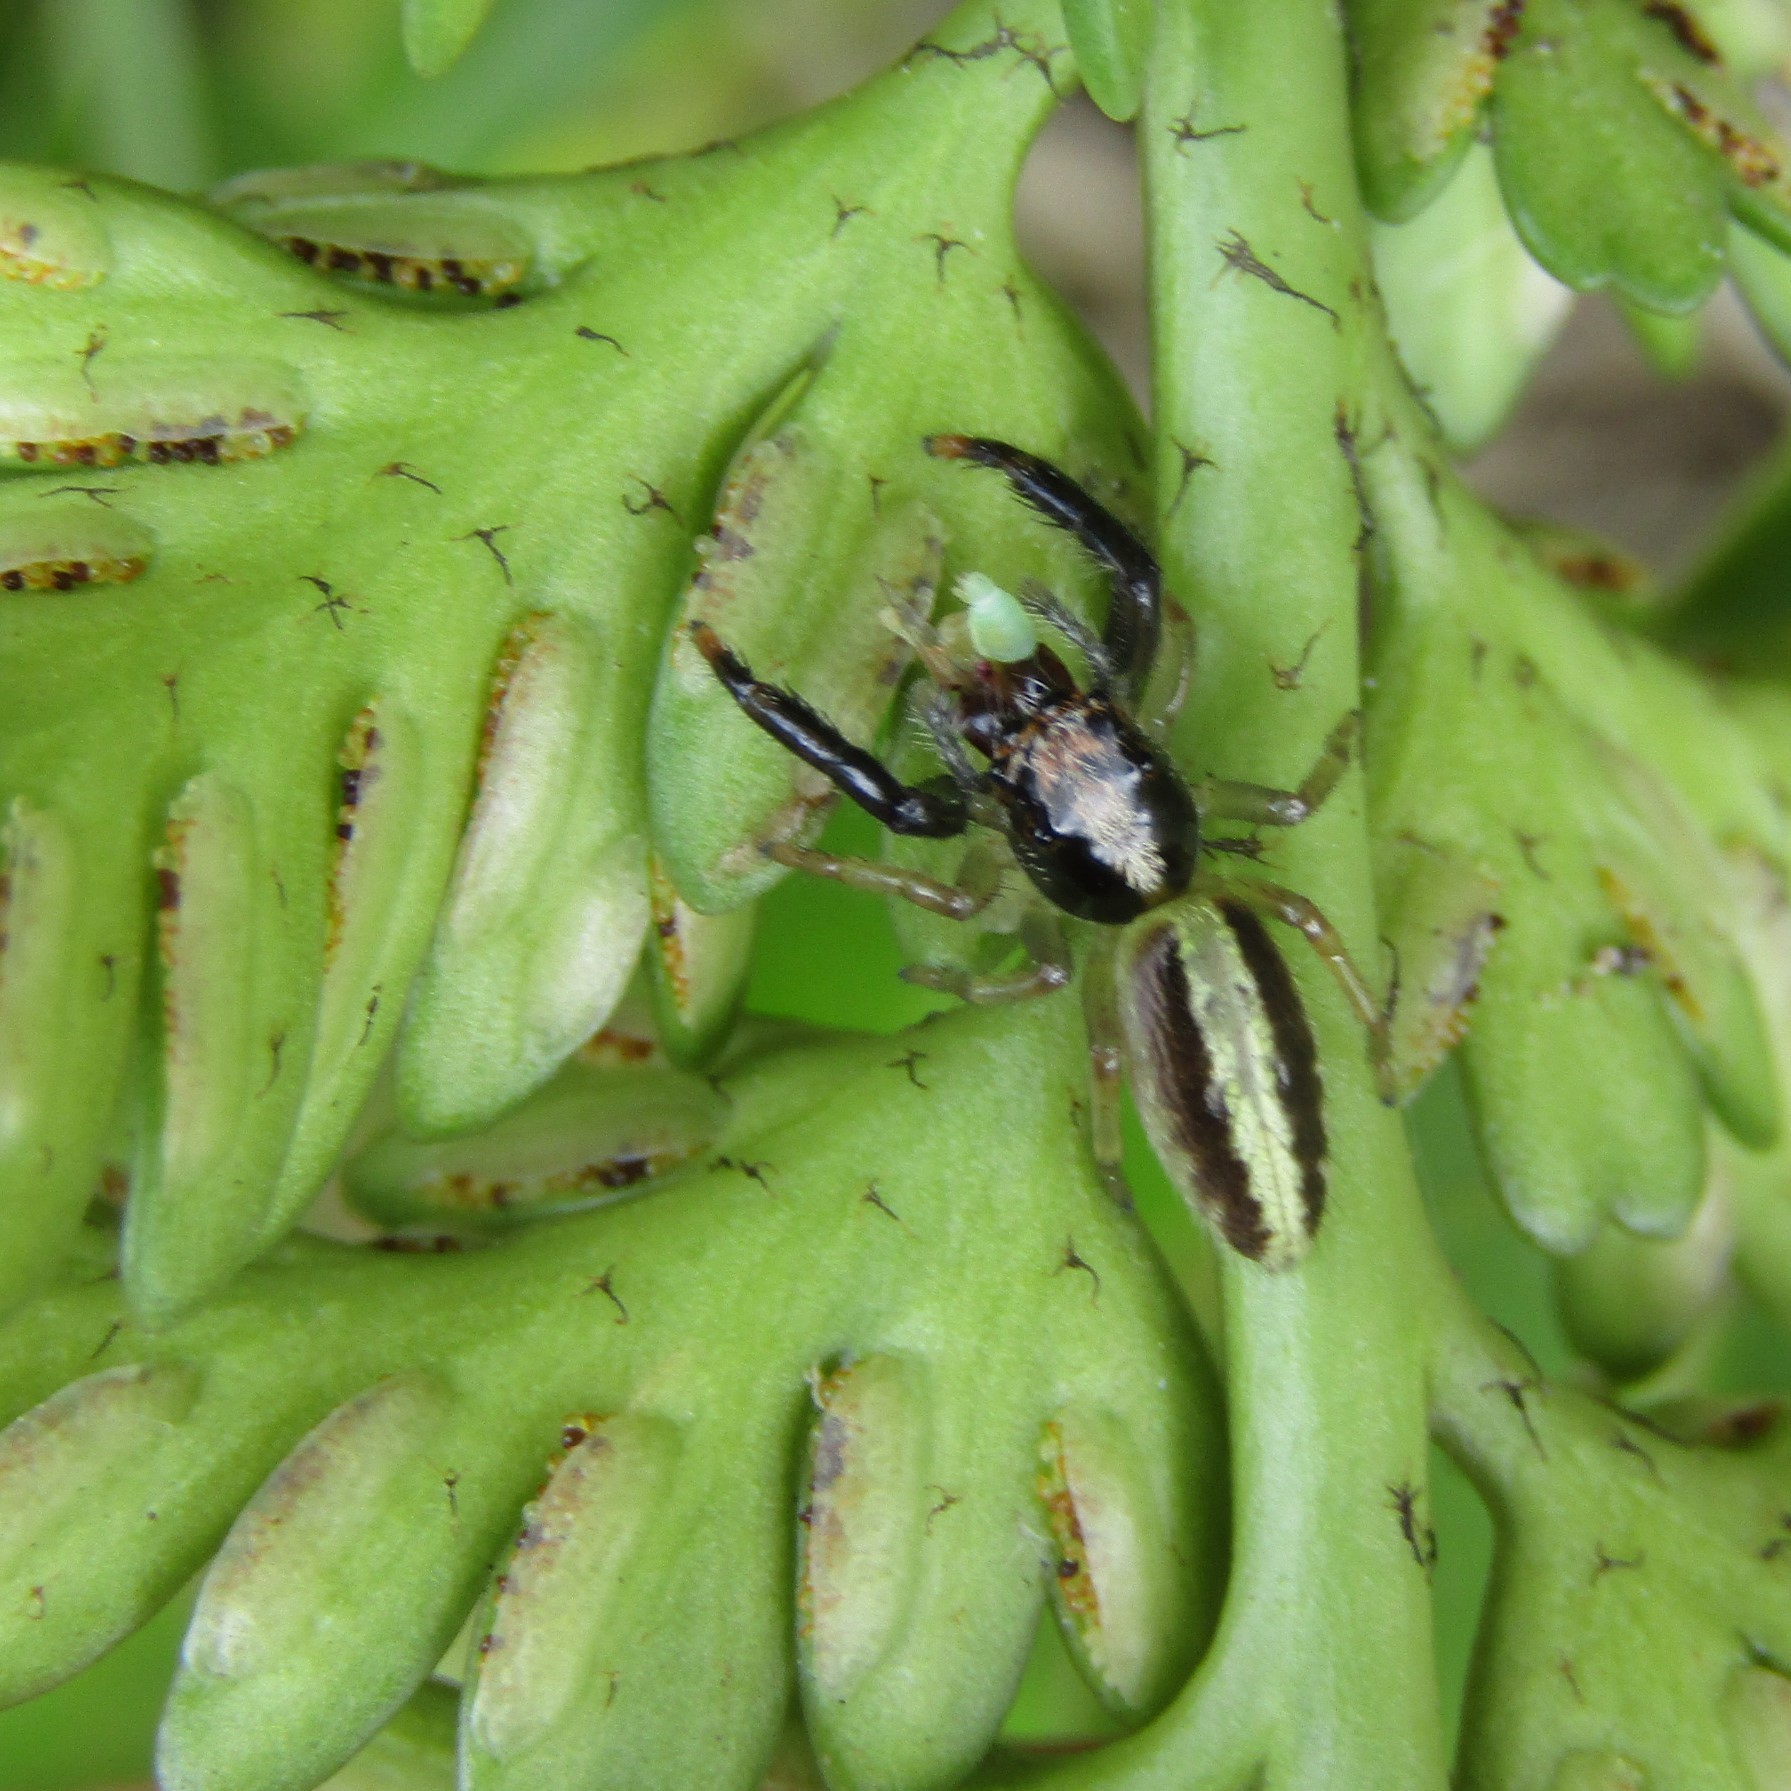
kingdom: Animalia
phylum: Arthropoda
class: Arachnida
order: Araneae
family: Salticidae
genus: Trite
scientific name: Trite planiceps
